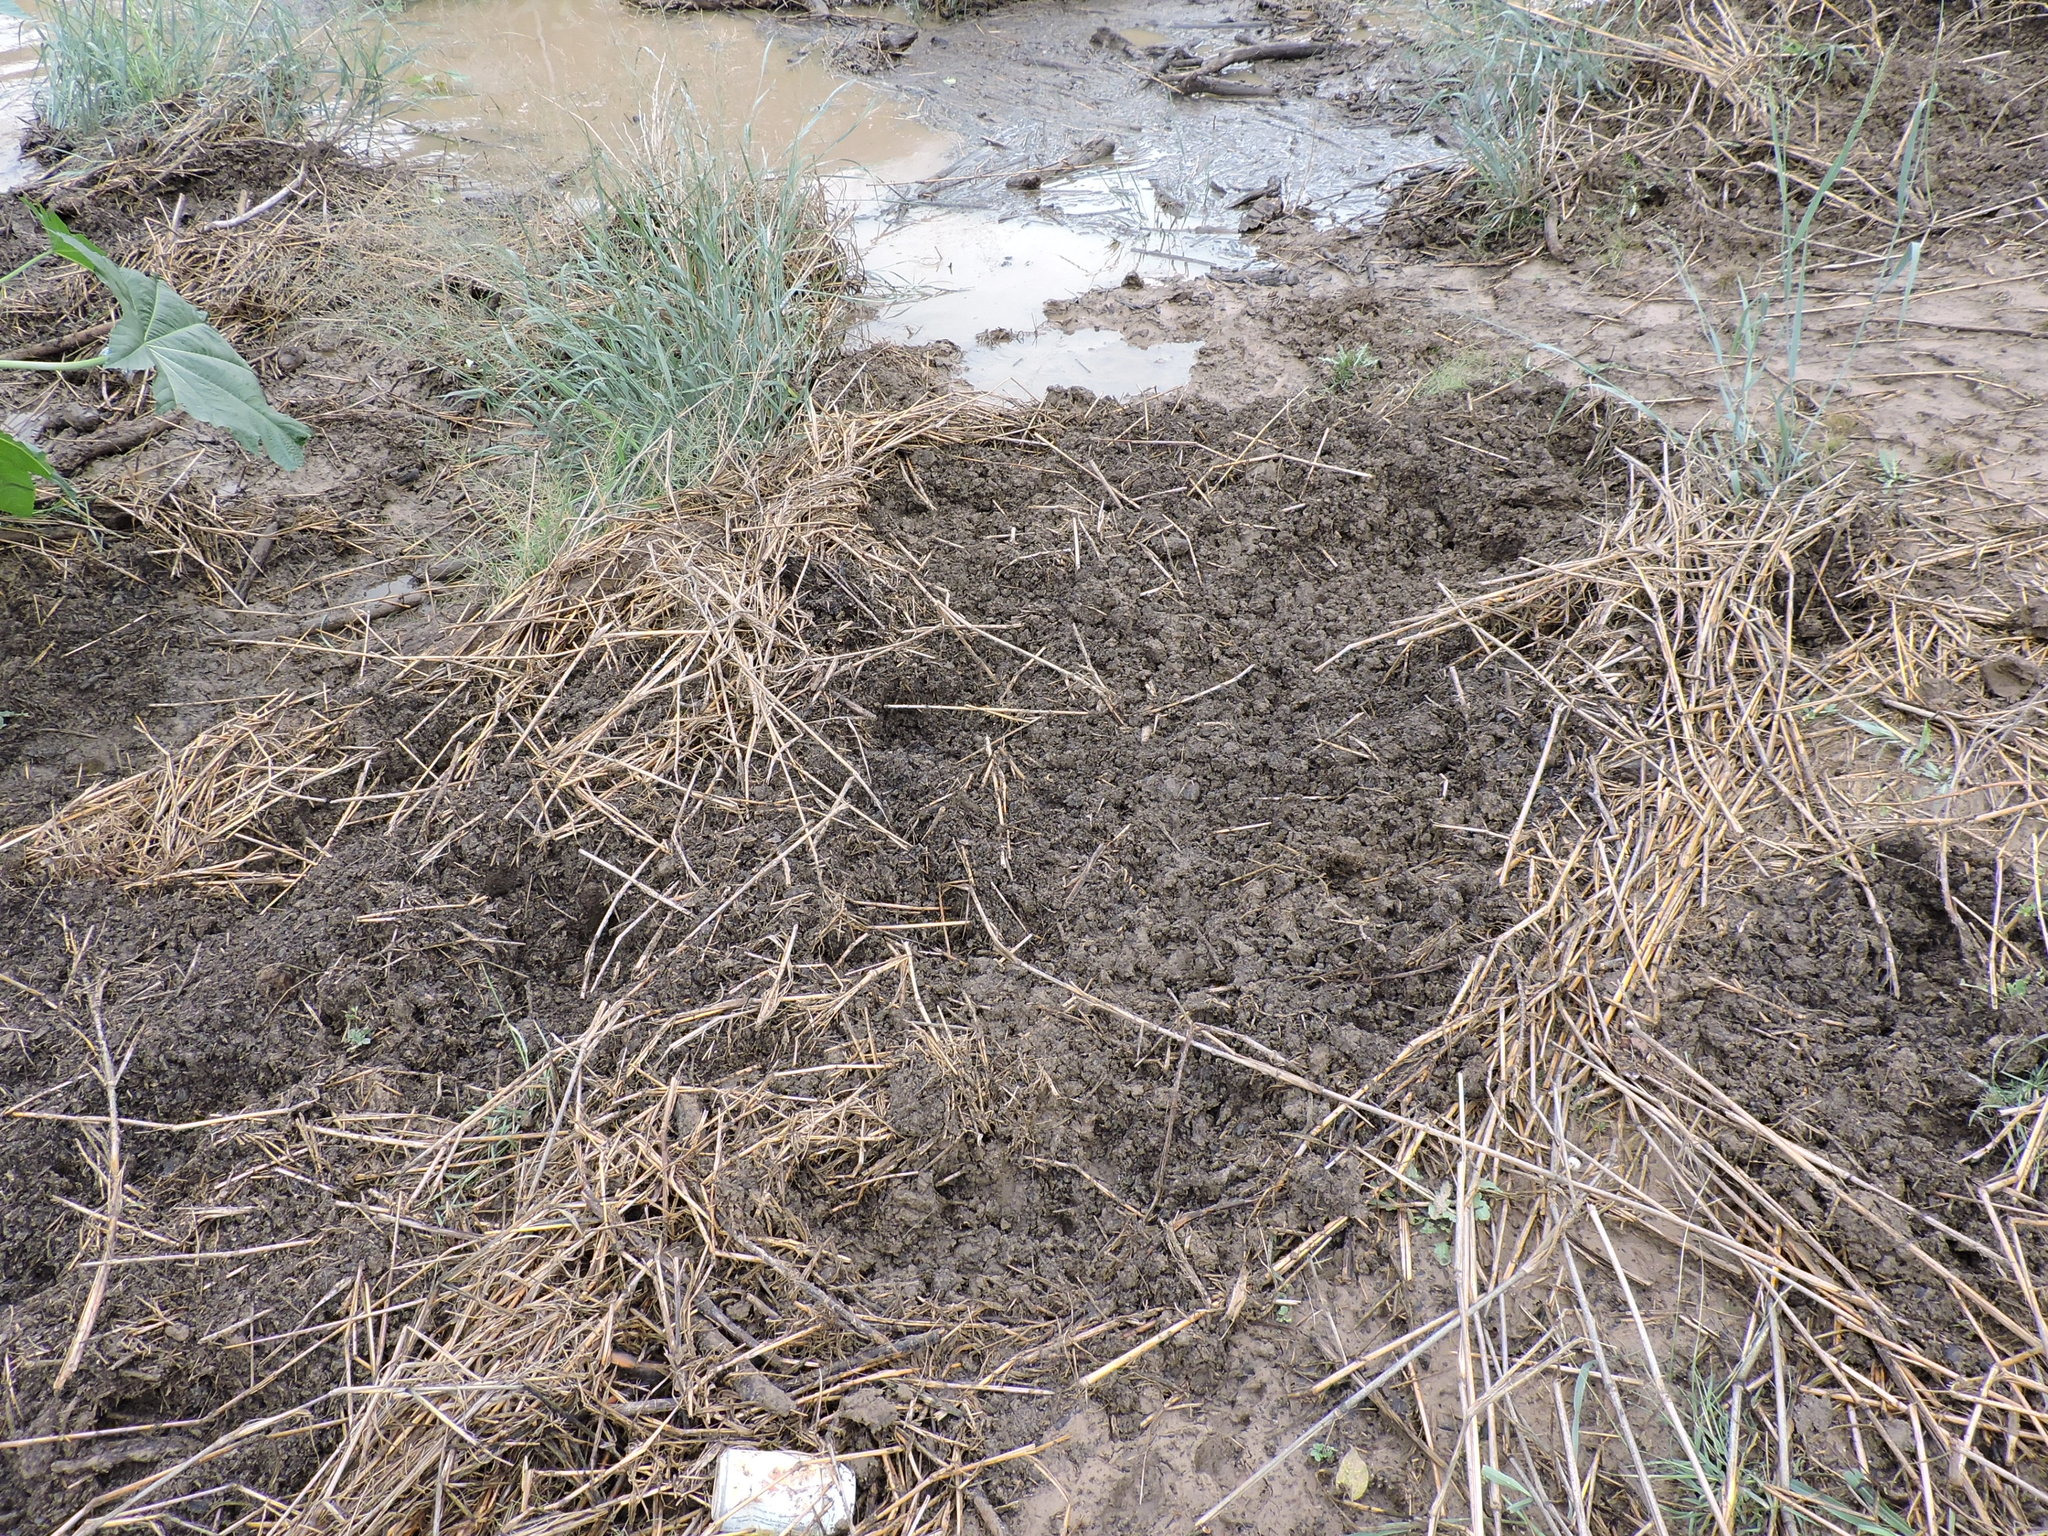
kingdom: Animalia
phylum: Chordata
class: Mammalia
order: Artiodactyla
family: Suidae
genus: Sus
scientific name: Sus scrofa
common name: Wild boar
